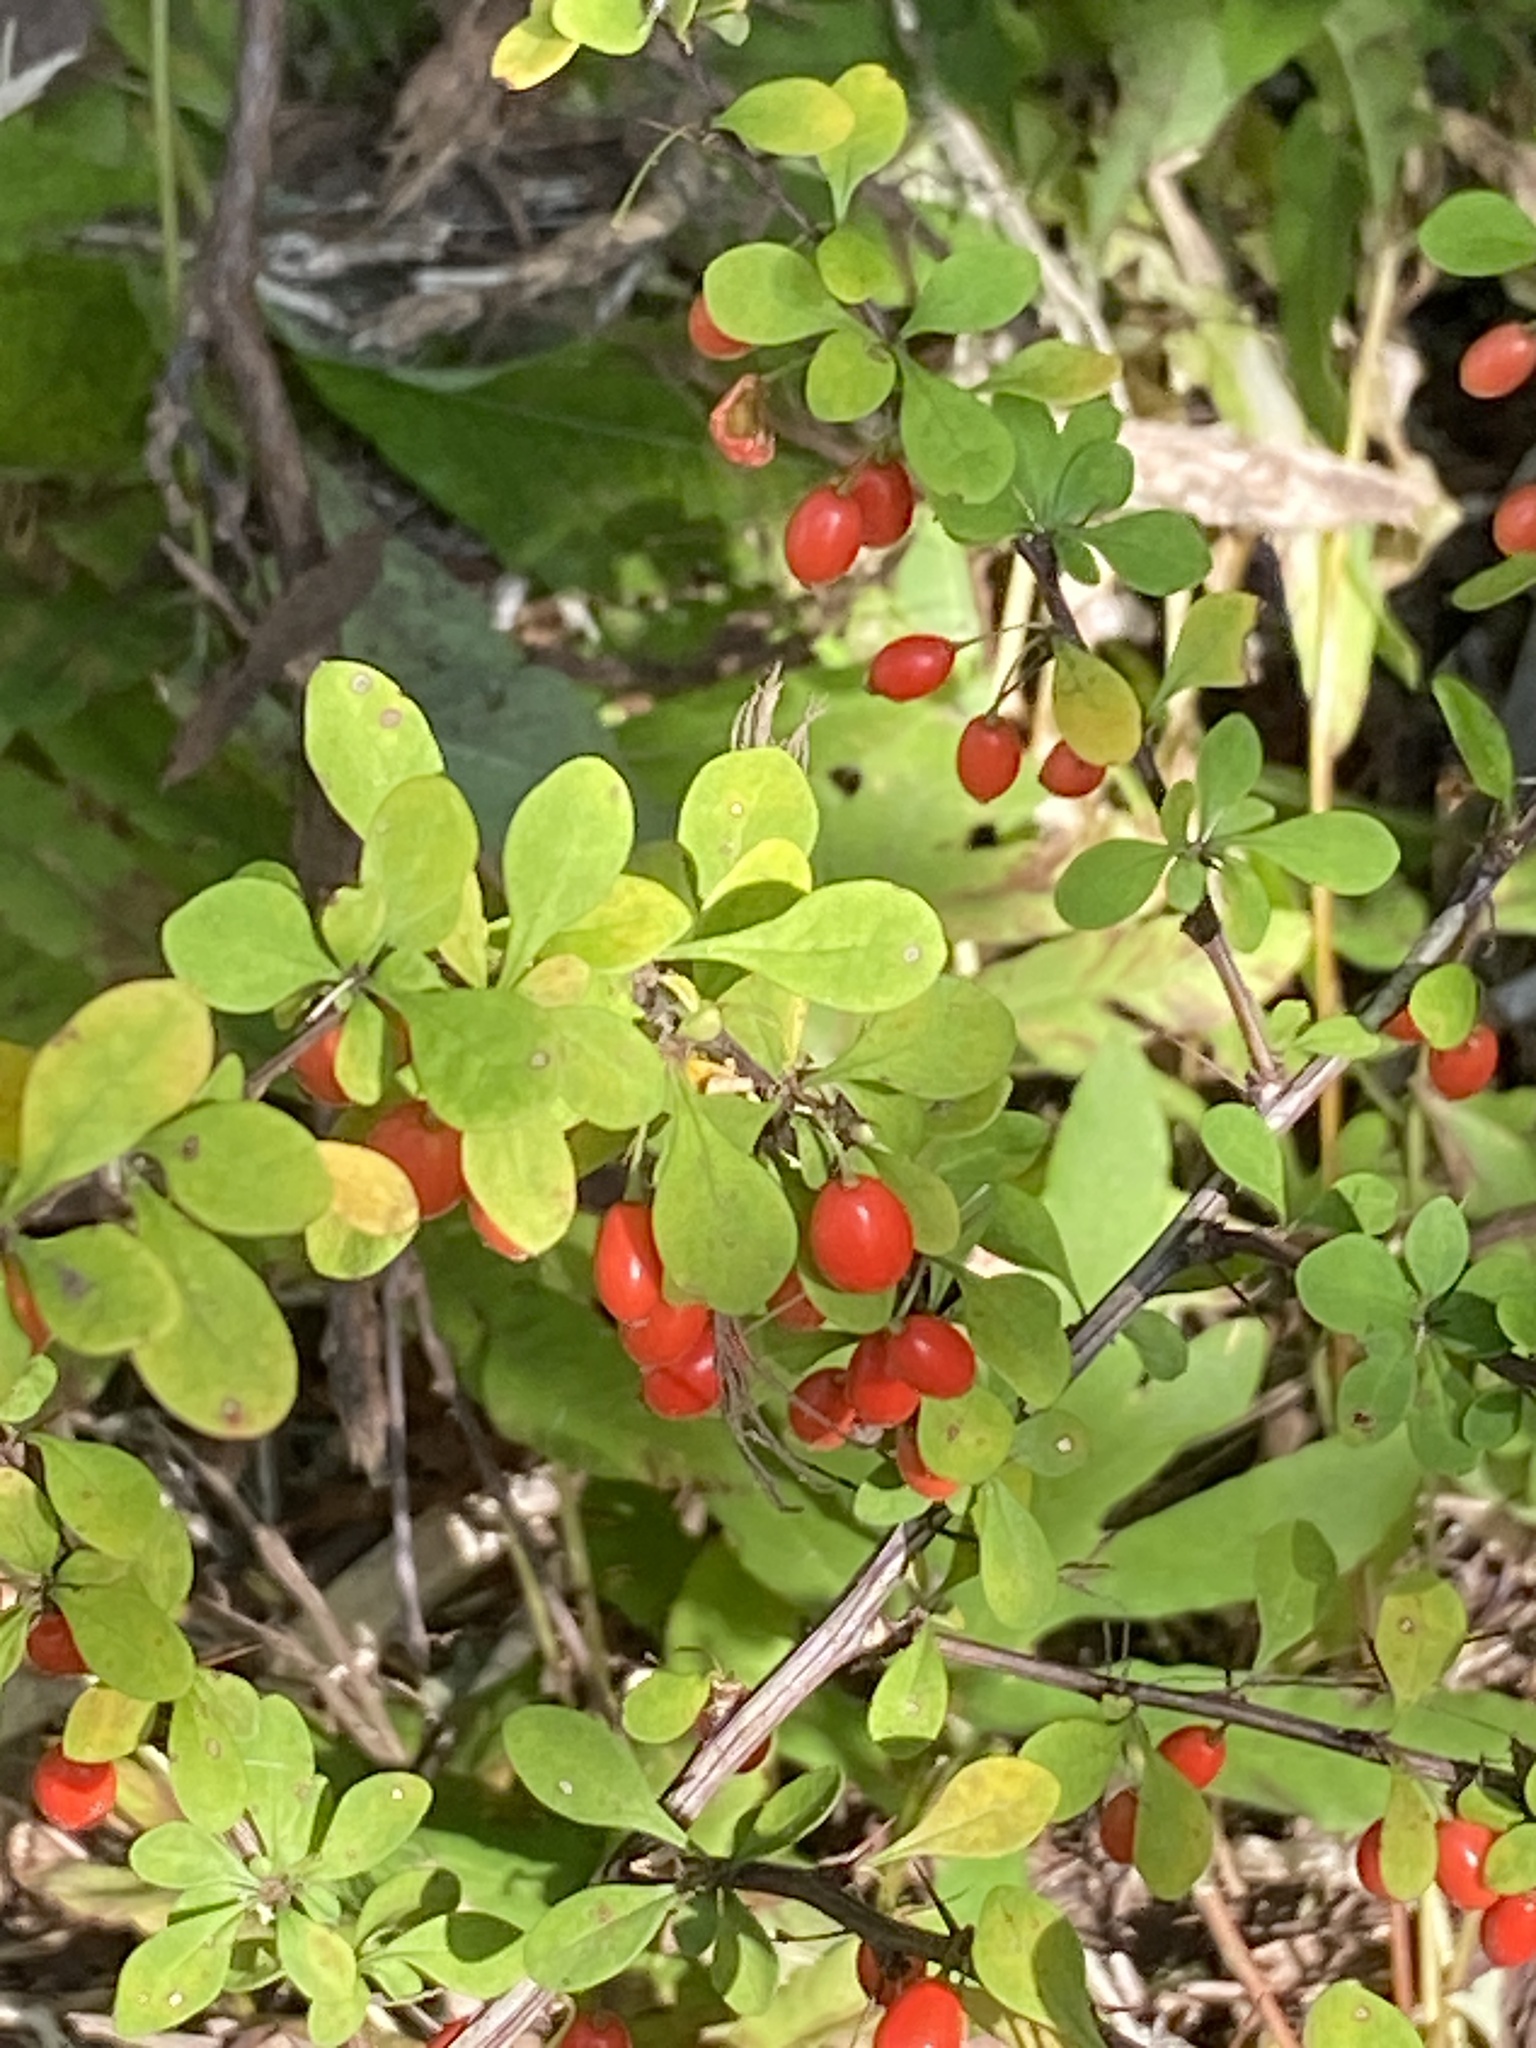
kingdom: Plantae
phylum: Tracheophyta
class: Magnoliopsida
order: Ranunculales
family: Berberidaceae
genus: Berberis
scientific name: Berberis thunbergii
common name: Japanese barberry
